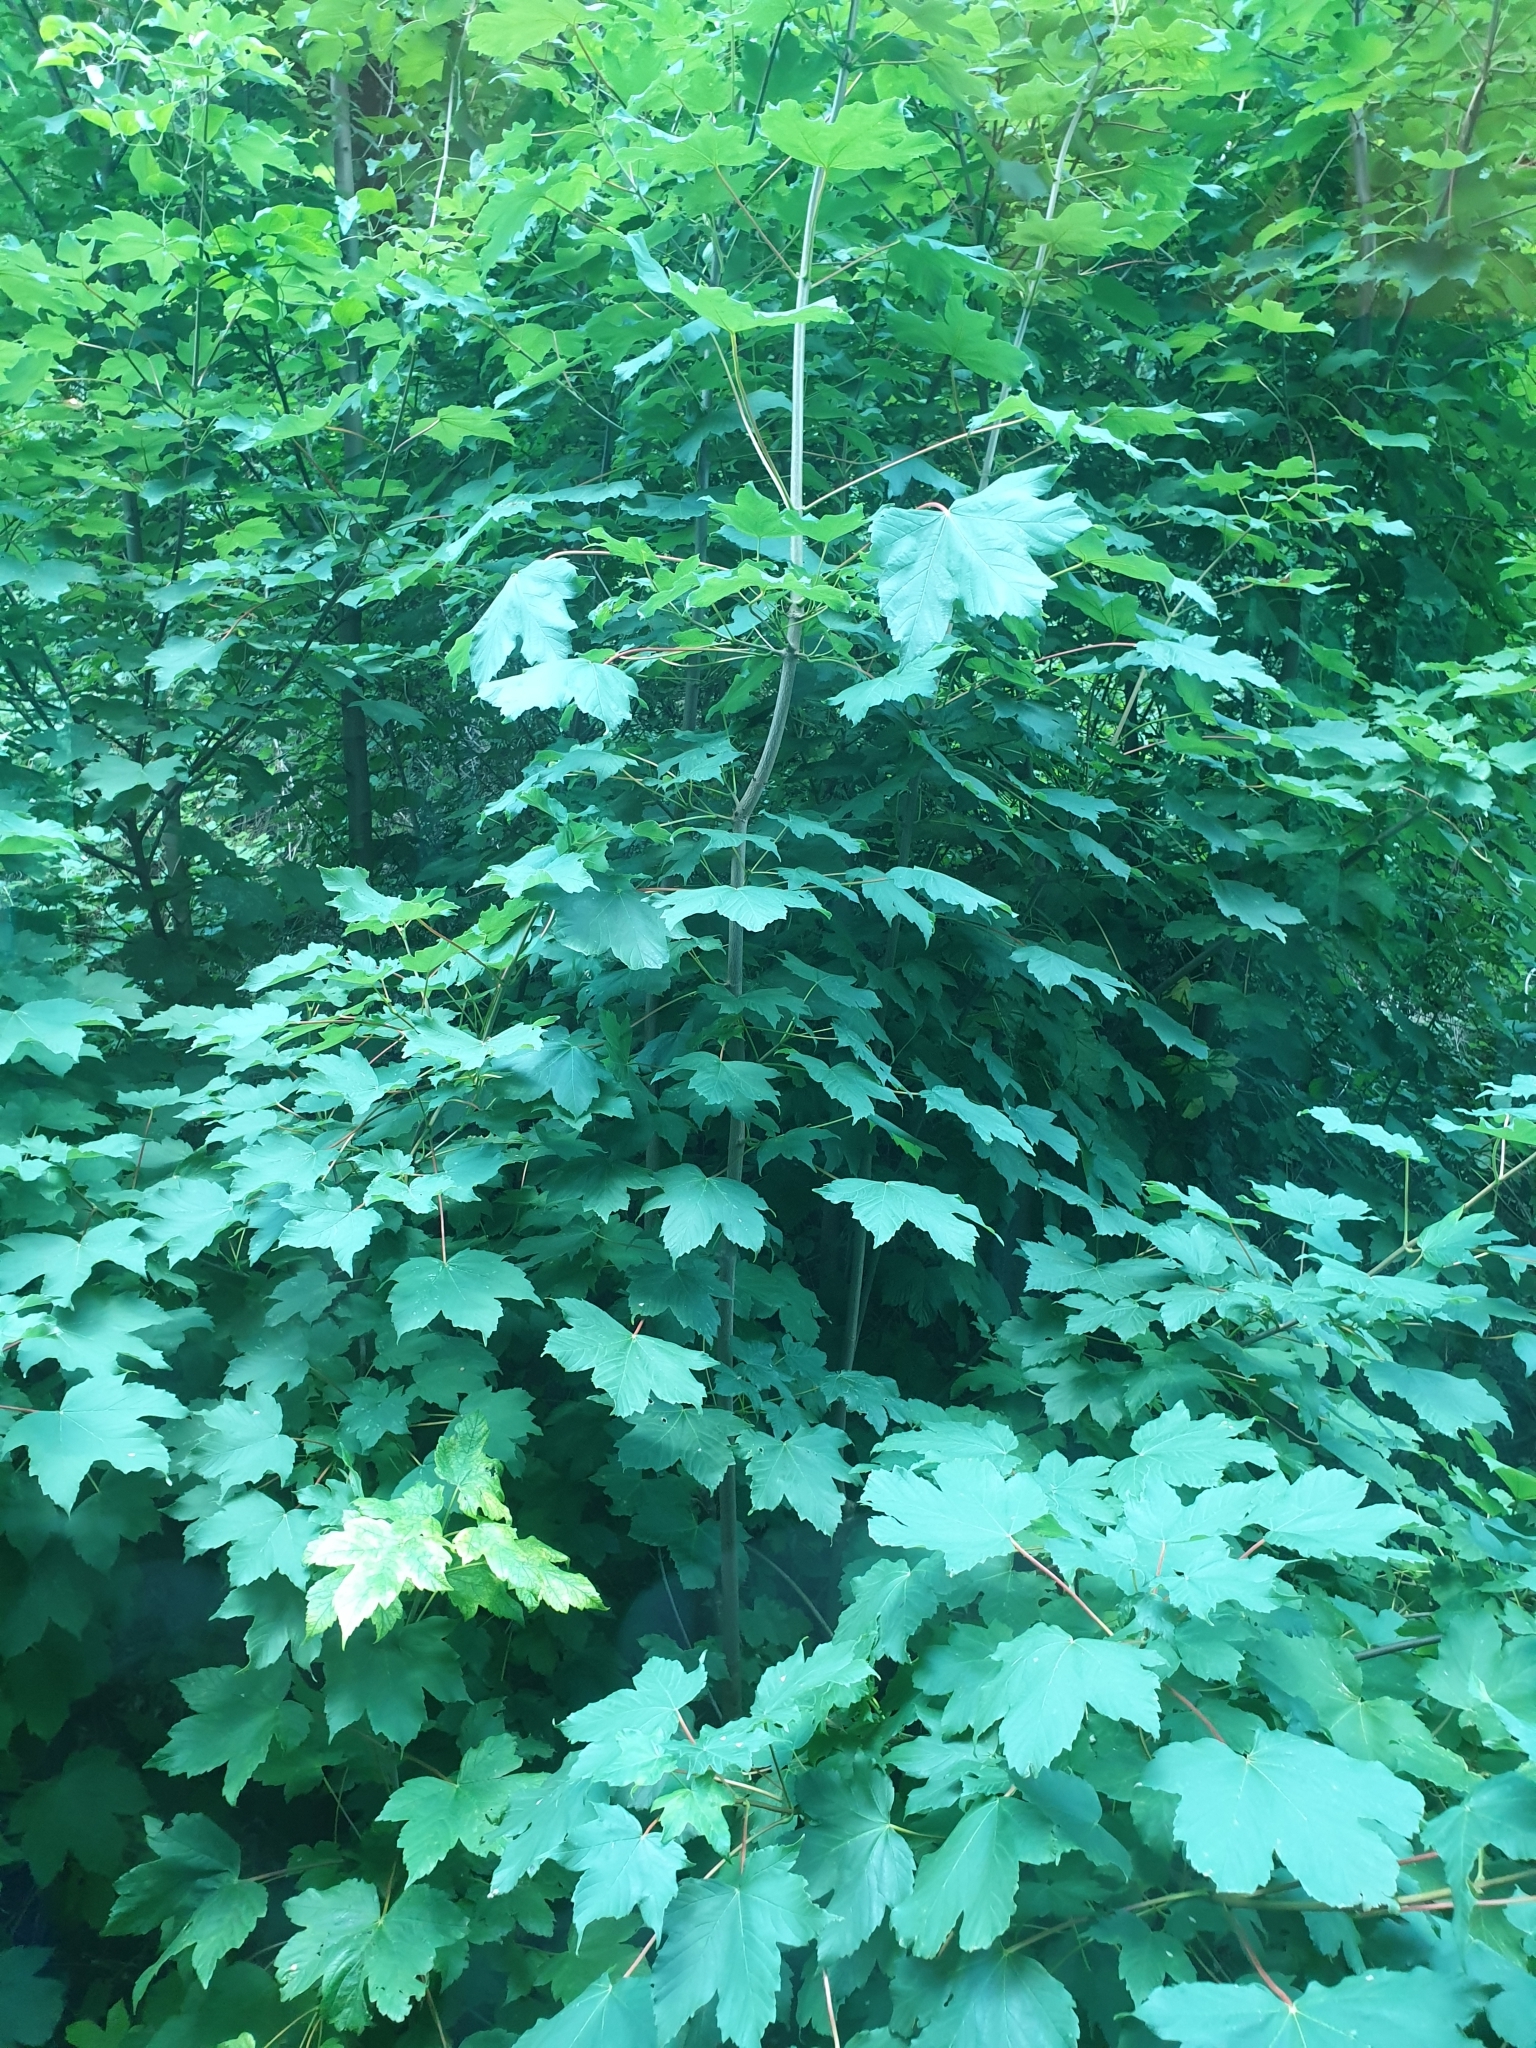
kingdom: Plantae
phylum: Tracheophyta
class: Magnoliopsida
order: Sapindales
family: Sapindaceae
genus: Acer
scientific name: Acer pseudoplatanus
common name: Sycamore
